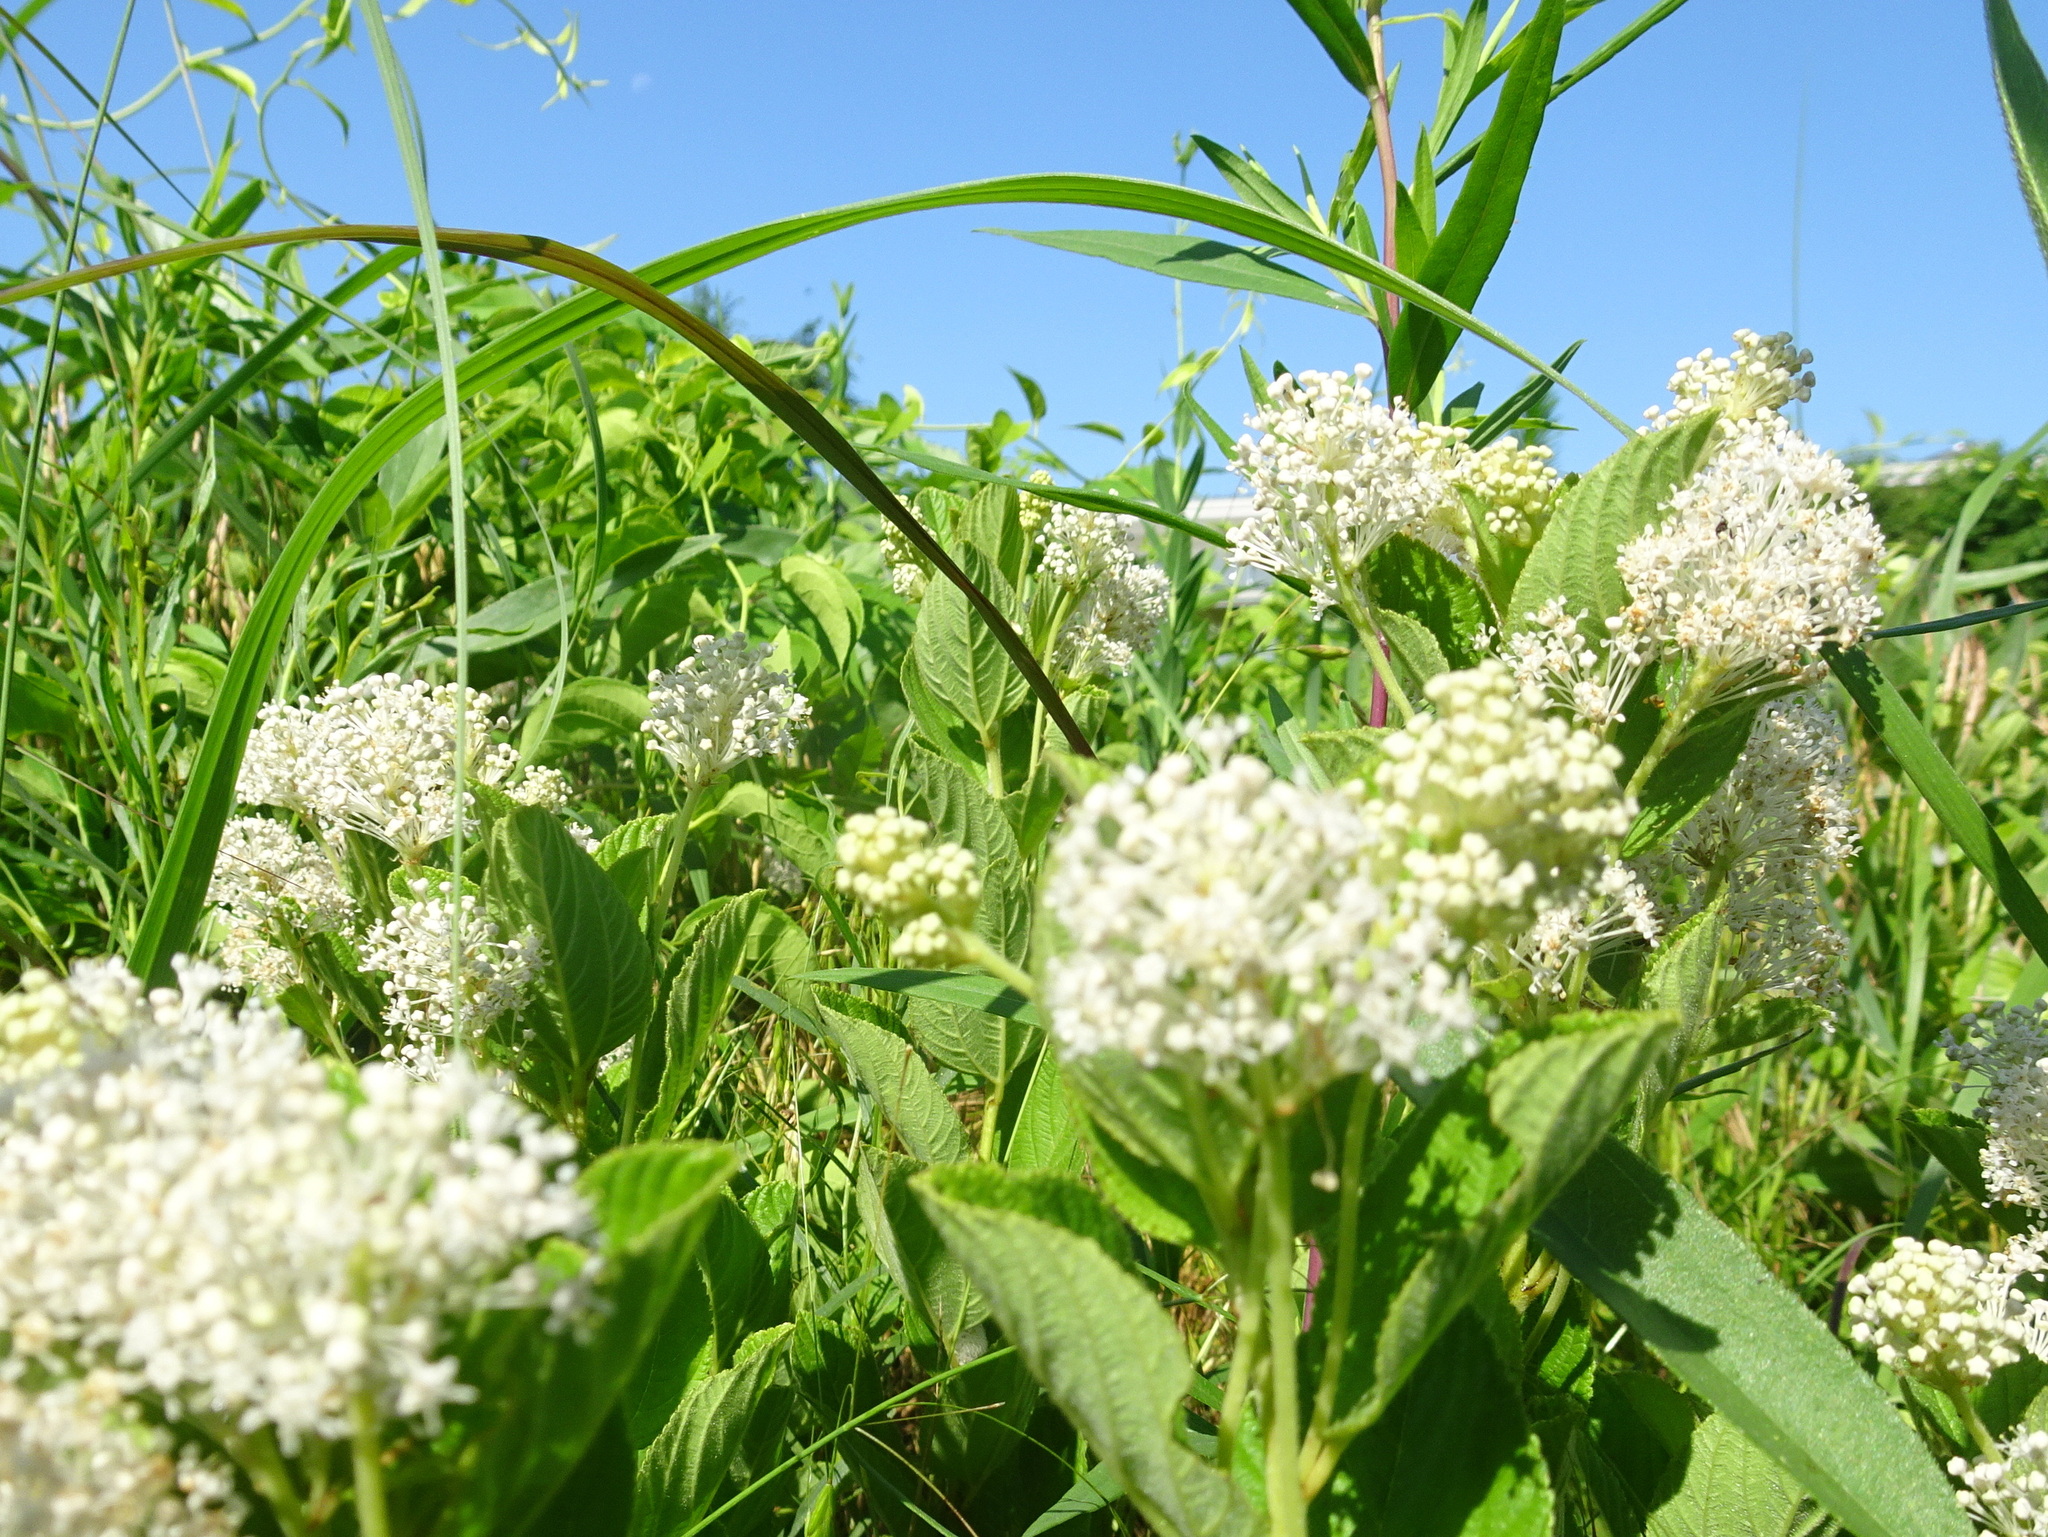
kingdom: Plantae
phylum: Tracheophyta
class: Magnoliopsida
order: Rosales
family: Rhamnaceae
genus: Ceanothus
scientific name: Ceanothus americanus
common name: Redroot
